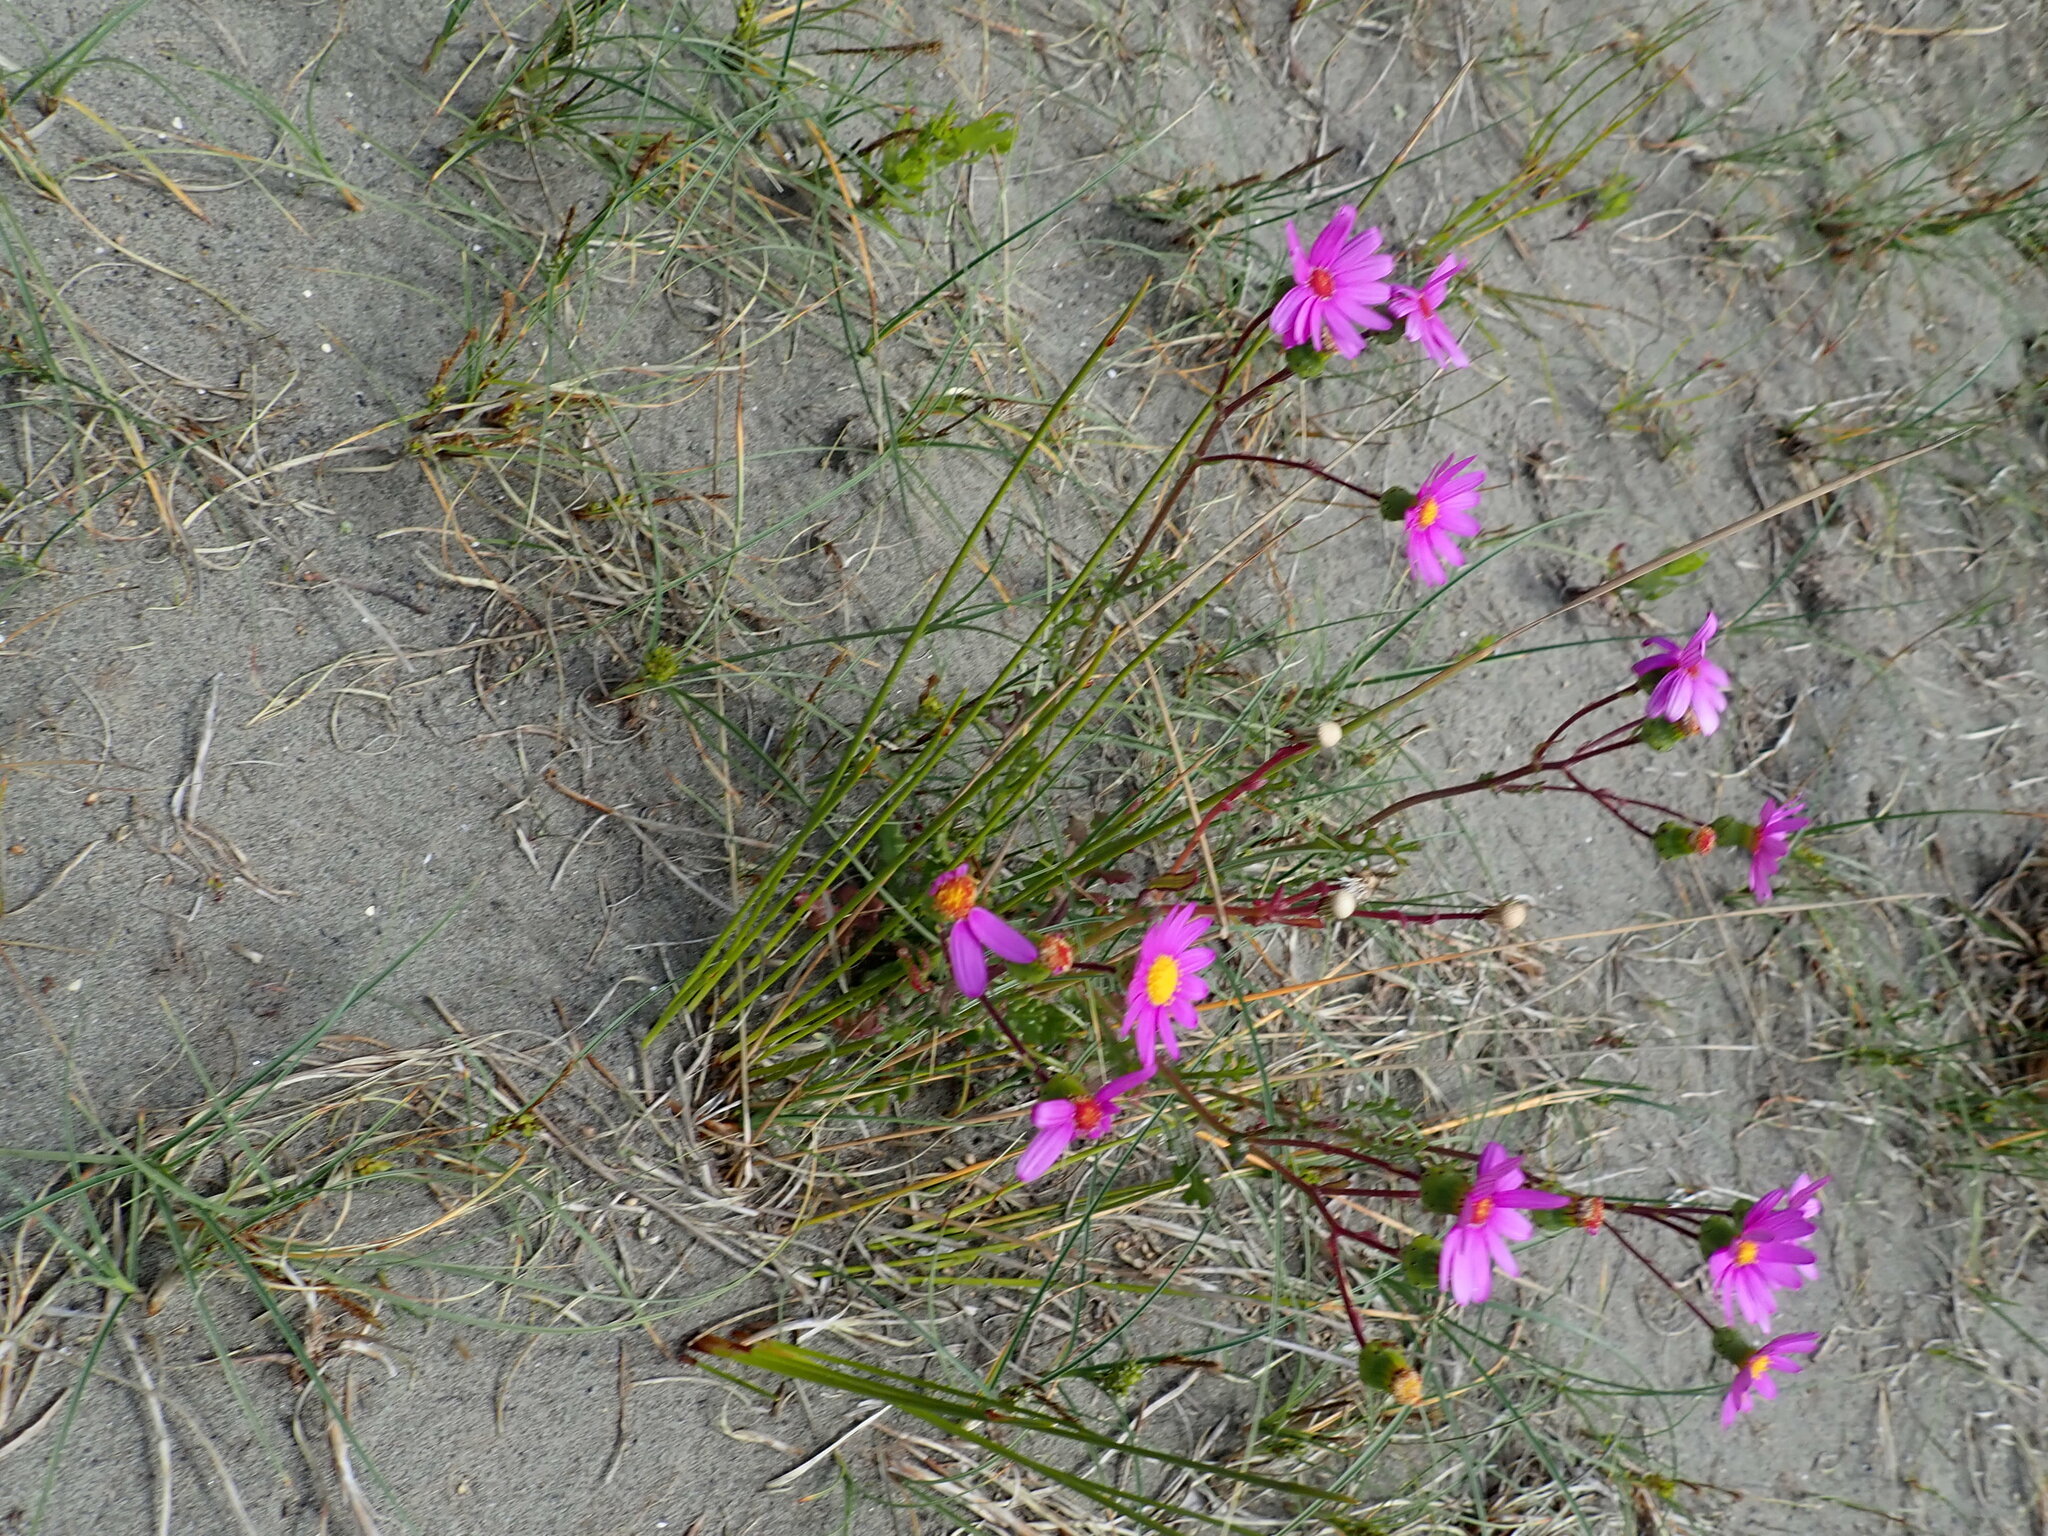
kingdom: Plantae
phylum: Tracheophyta
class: Magnoliopsida
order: Asterales
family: Asteraceae
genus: Senecio
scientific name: Senecio elegans
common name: Purple groundsel
